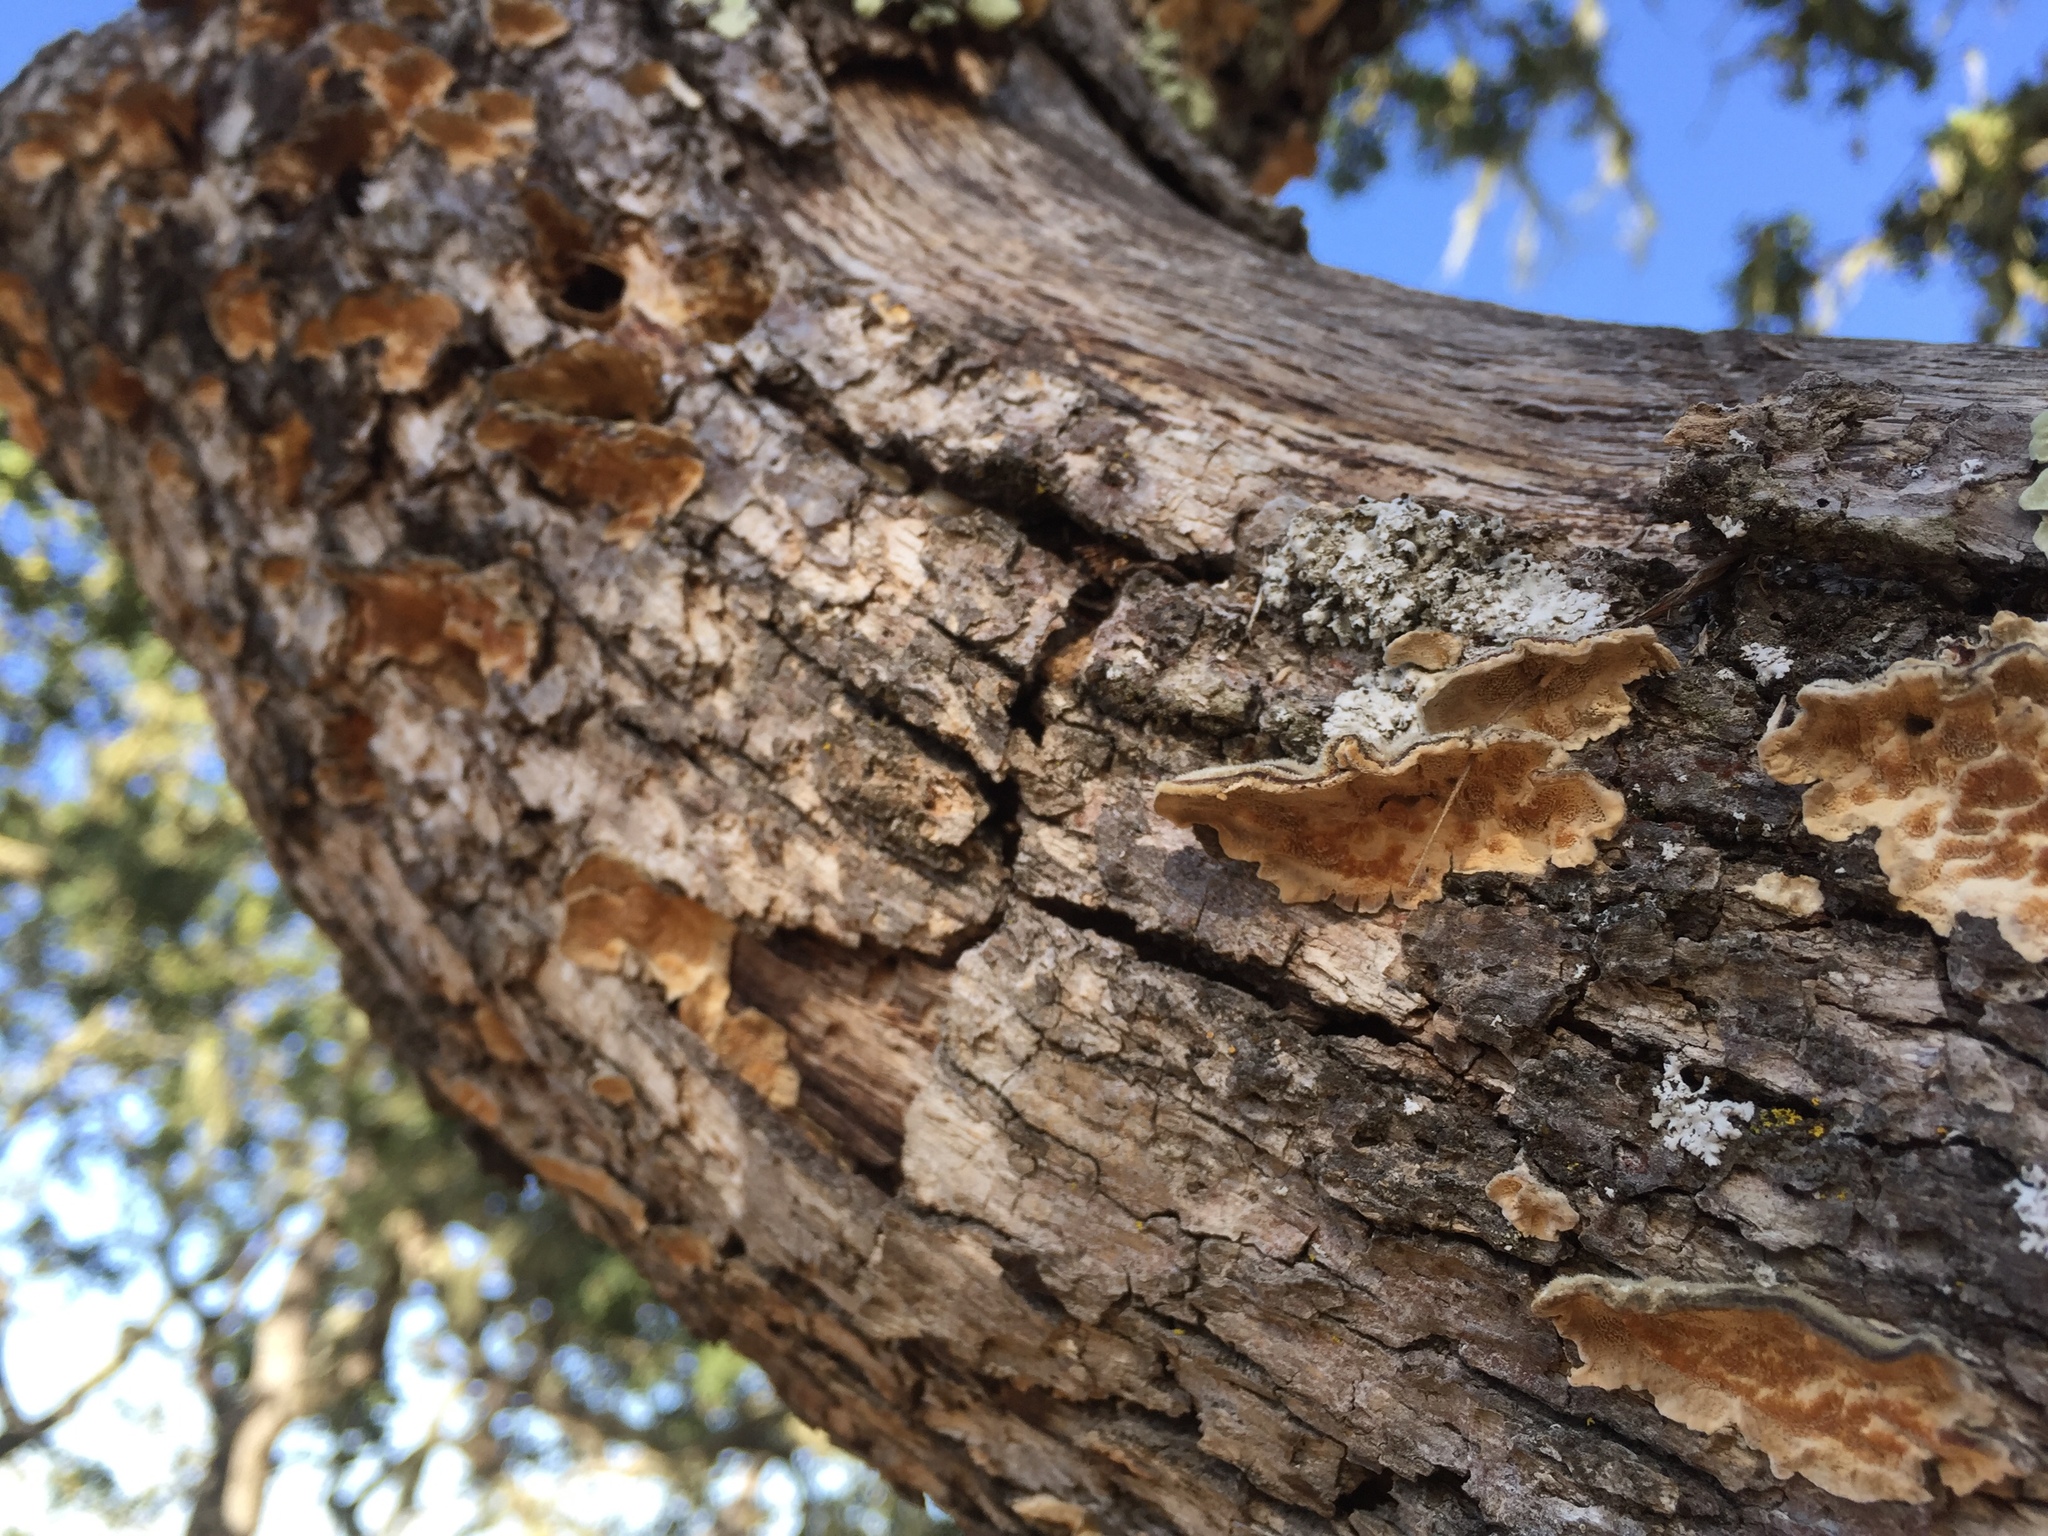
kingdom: Fungi
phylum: Basidiomycota
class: Agaricomycetes
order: Polyporales
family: Polyporaceae
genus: Trametes
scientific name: Trametes versicolor
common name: Turkeytail
